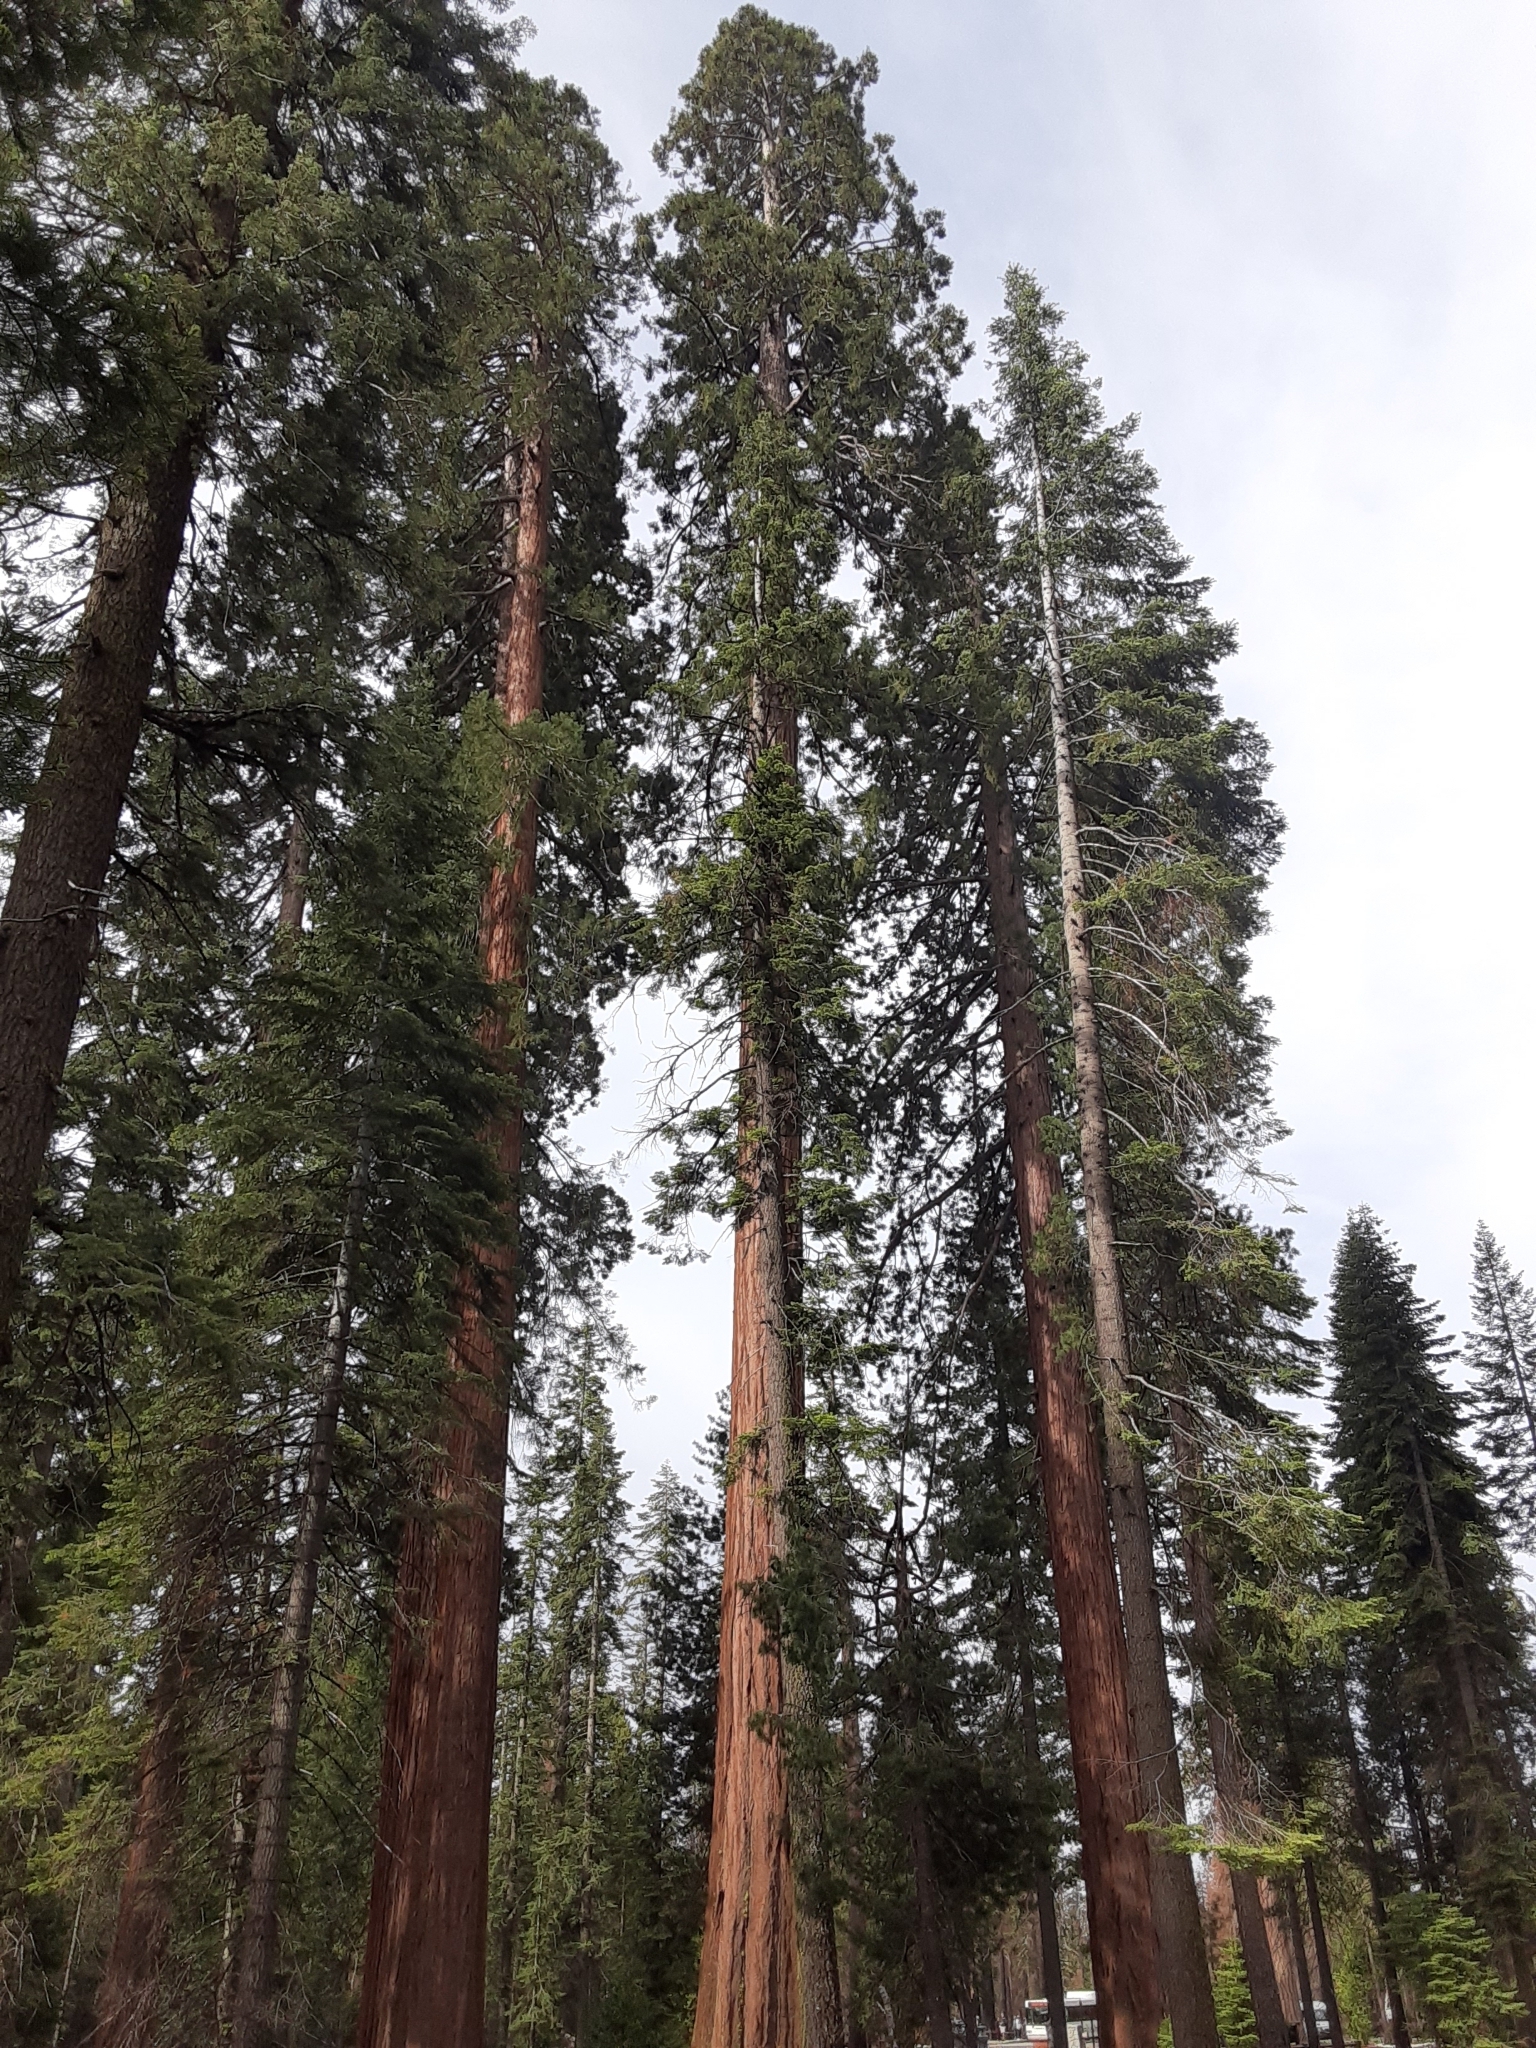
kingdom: Plantae
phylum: Tracheophyta
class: Pinopsida
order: Pinales
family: Cupressaceae
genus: Sequoiadendron
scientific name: Sequoiadendron giganteum
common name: Wellingtonia
